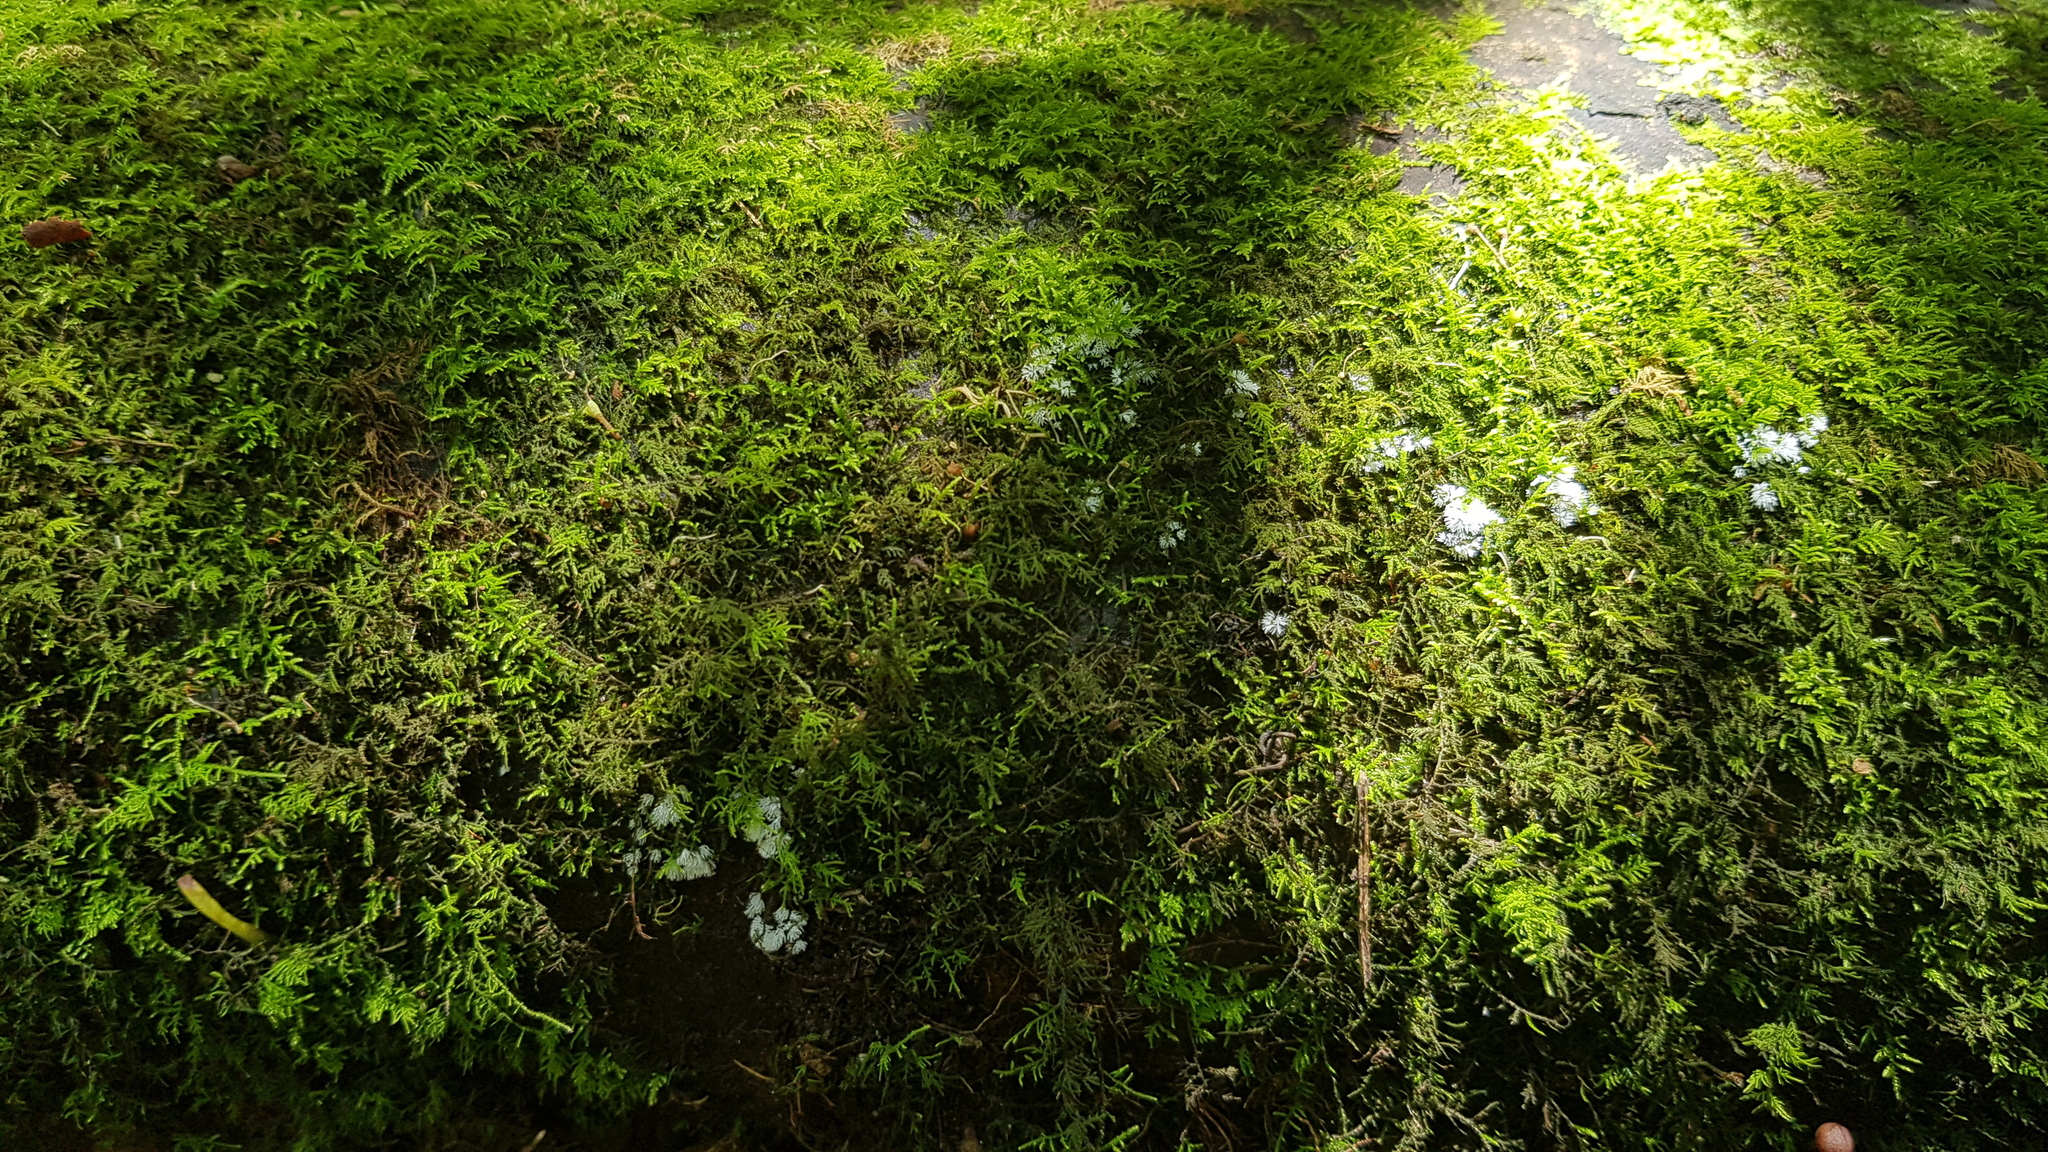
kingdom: Protozoa
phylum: Mycetozoa
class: Protosteliomycetes
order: Ceratiomyxales
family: Ceratiomyxaceae
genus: Ceratiomyxa
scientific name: Ceratiomyxa fruticulosa
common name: Honeycomb coral slime mold
